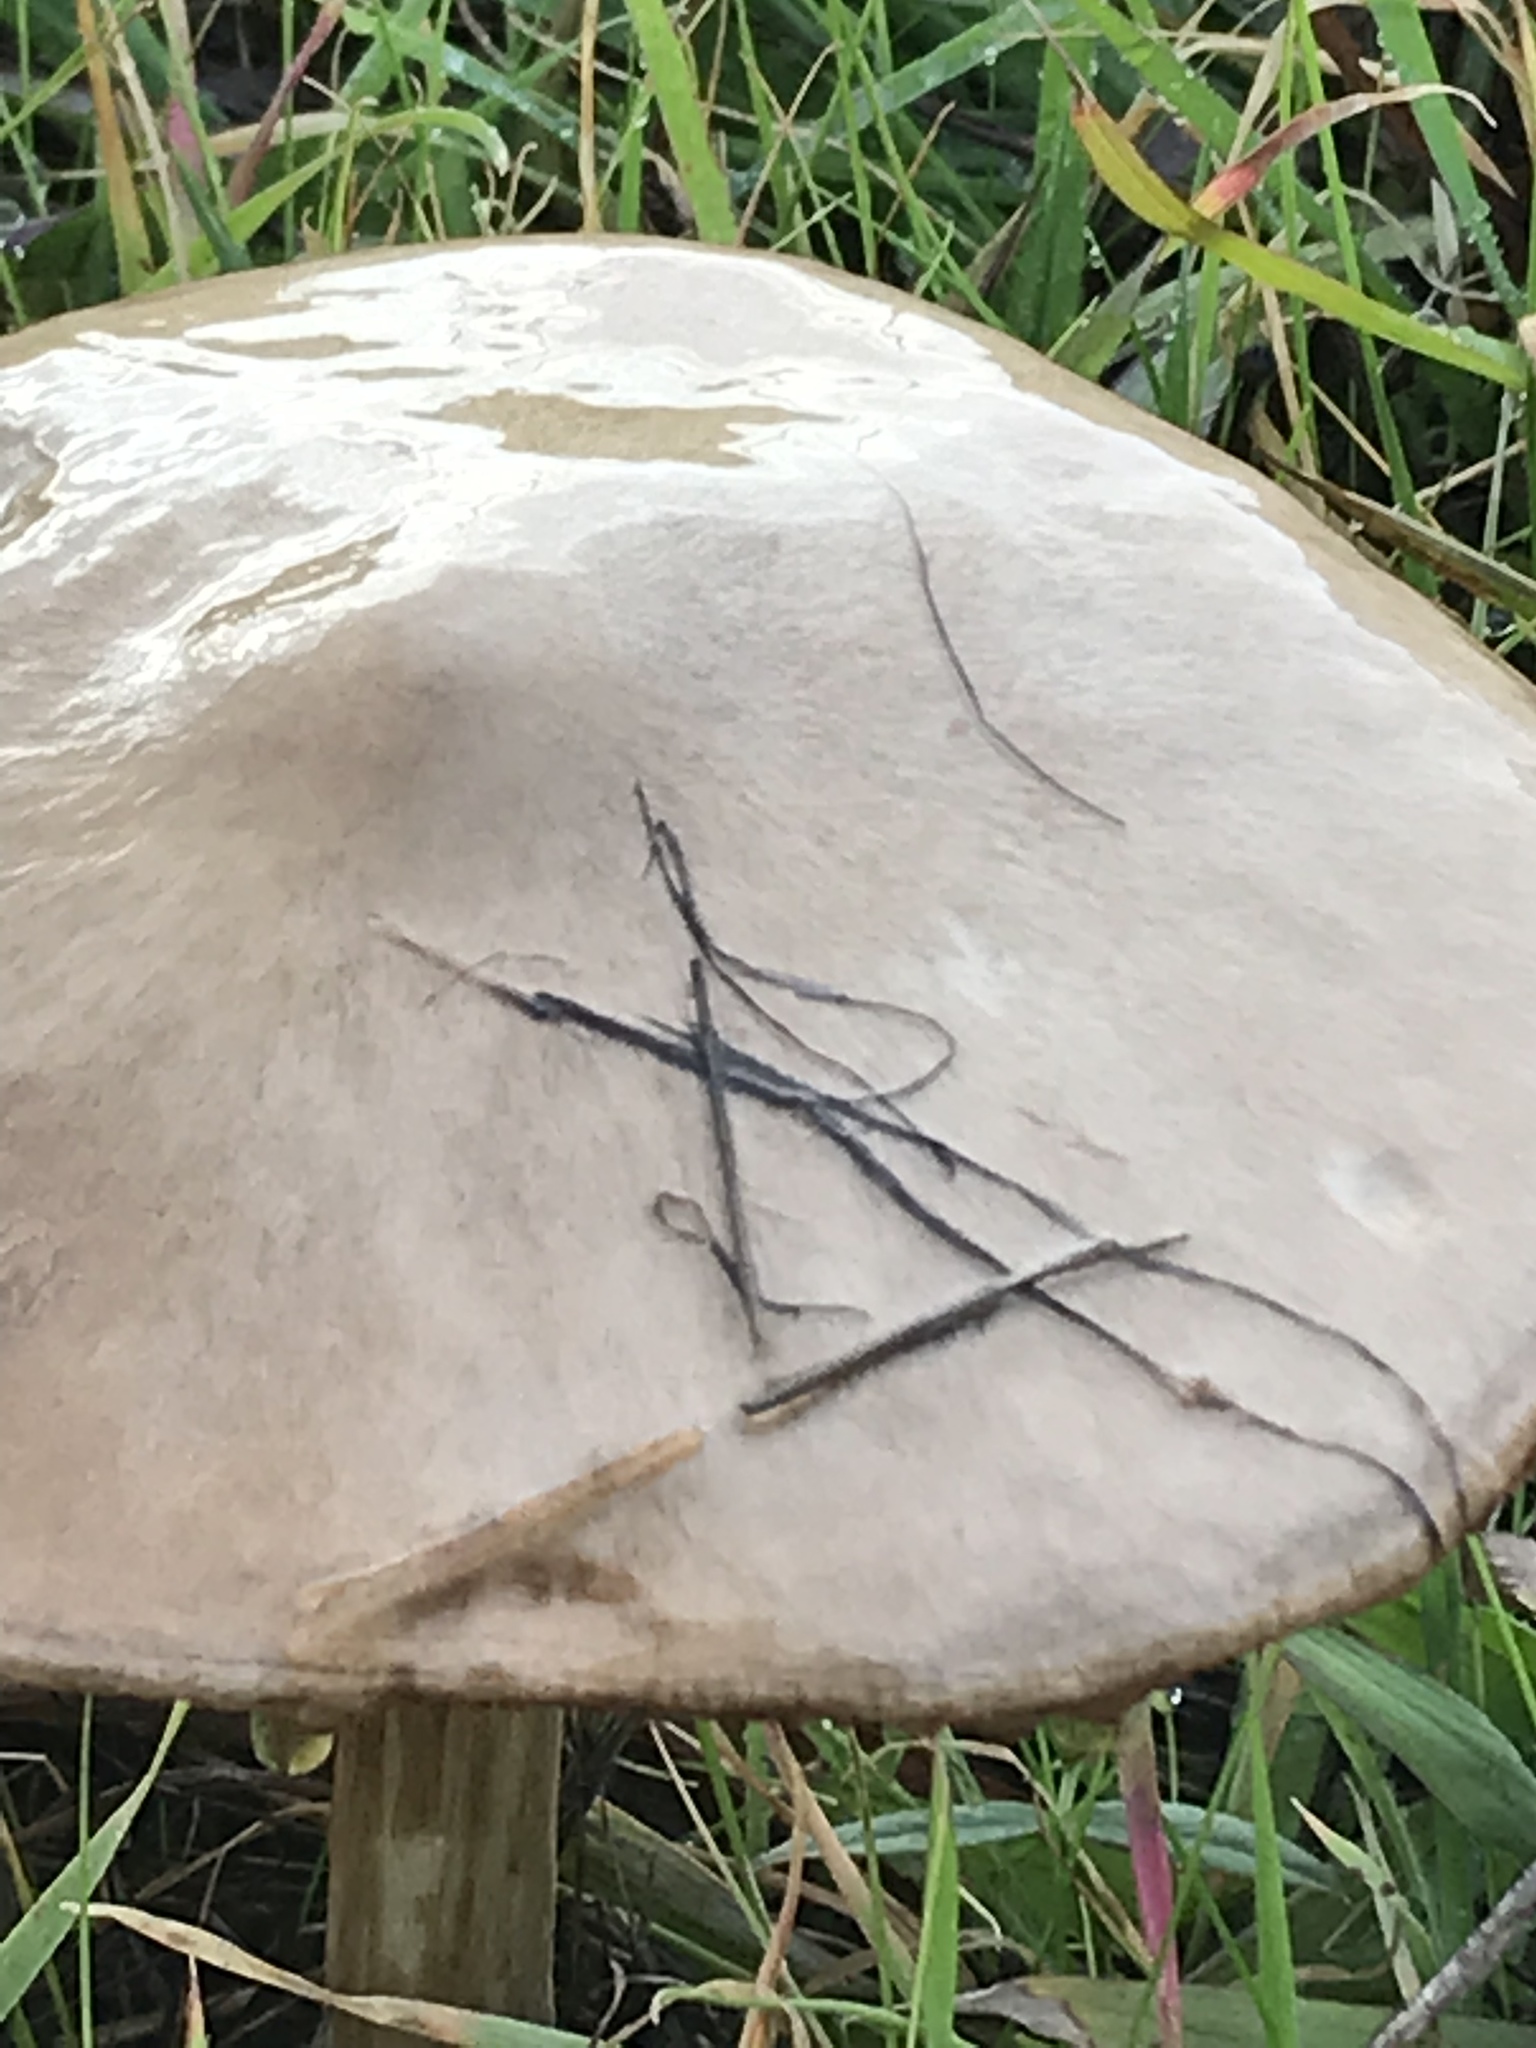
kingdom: Fungi
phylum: Basidiomycota
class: Agaricomycetes
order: Agaricales
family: Pluteaceae
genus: Volvopluteus
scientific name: Volvopluteus gloiocephalus
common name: Stubble rosegill
